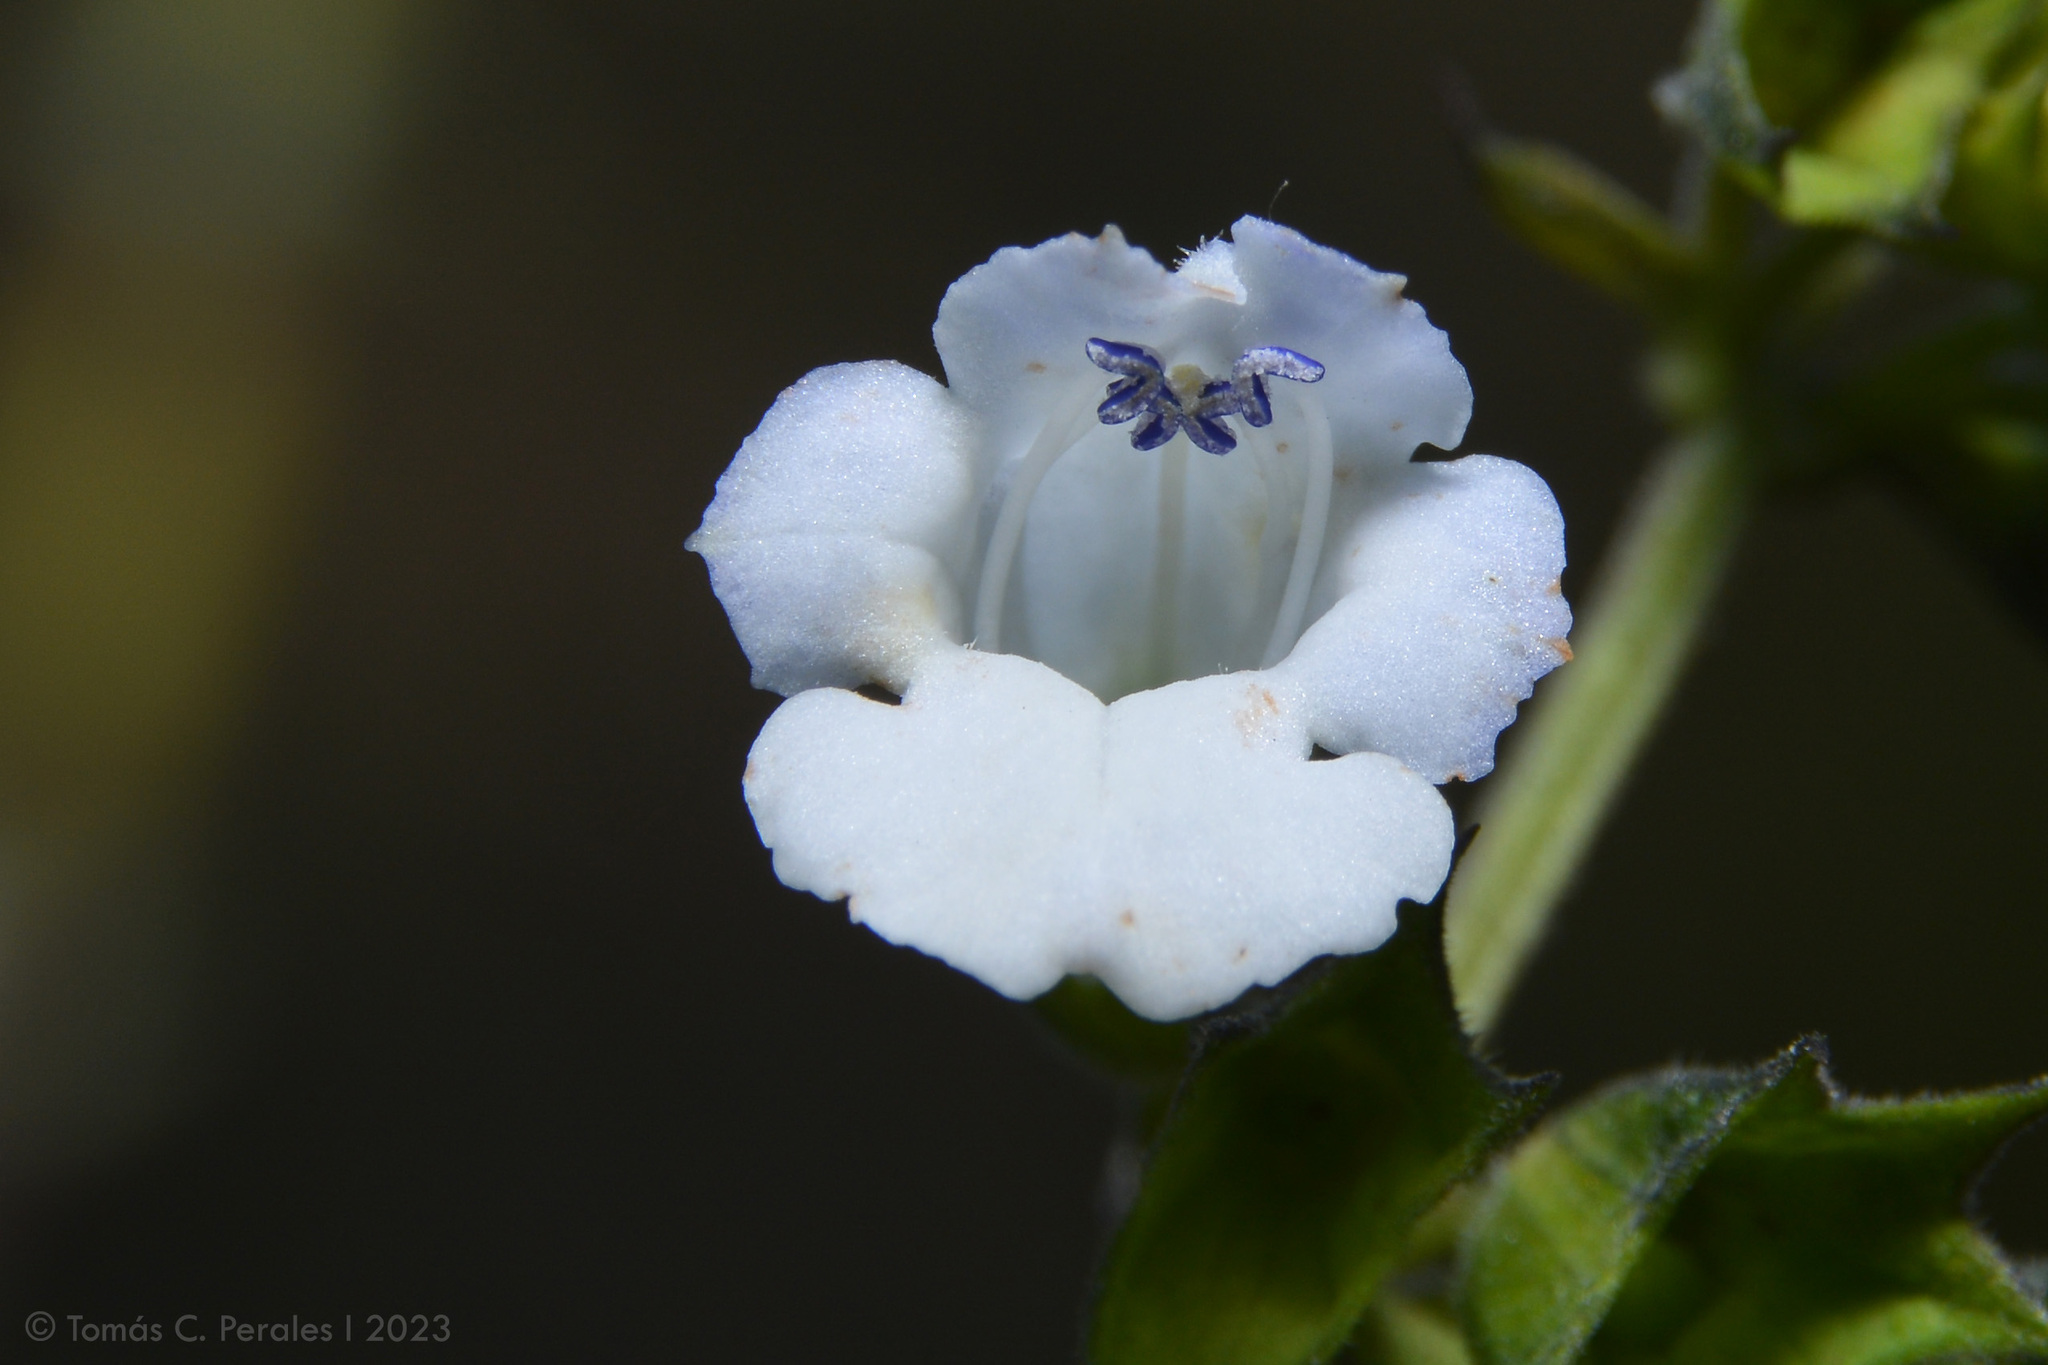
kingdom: Plantae
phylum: Tracheophyta
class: Magnoliopsida
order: Lamiales
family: Lamiaceae
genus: Lepechinia
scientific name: Lepechinia floribunda
